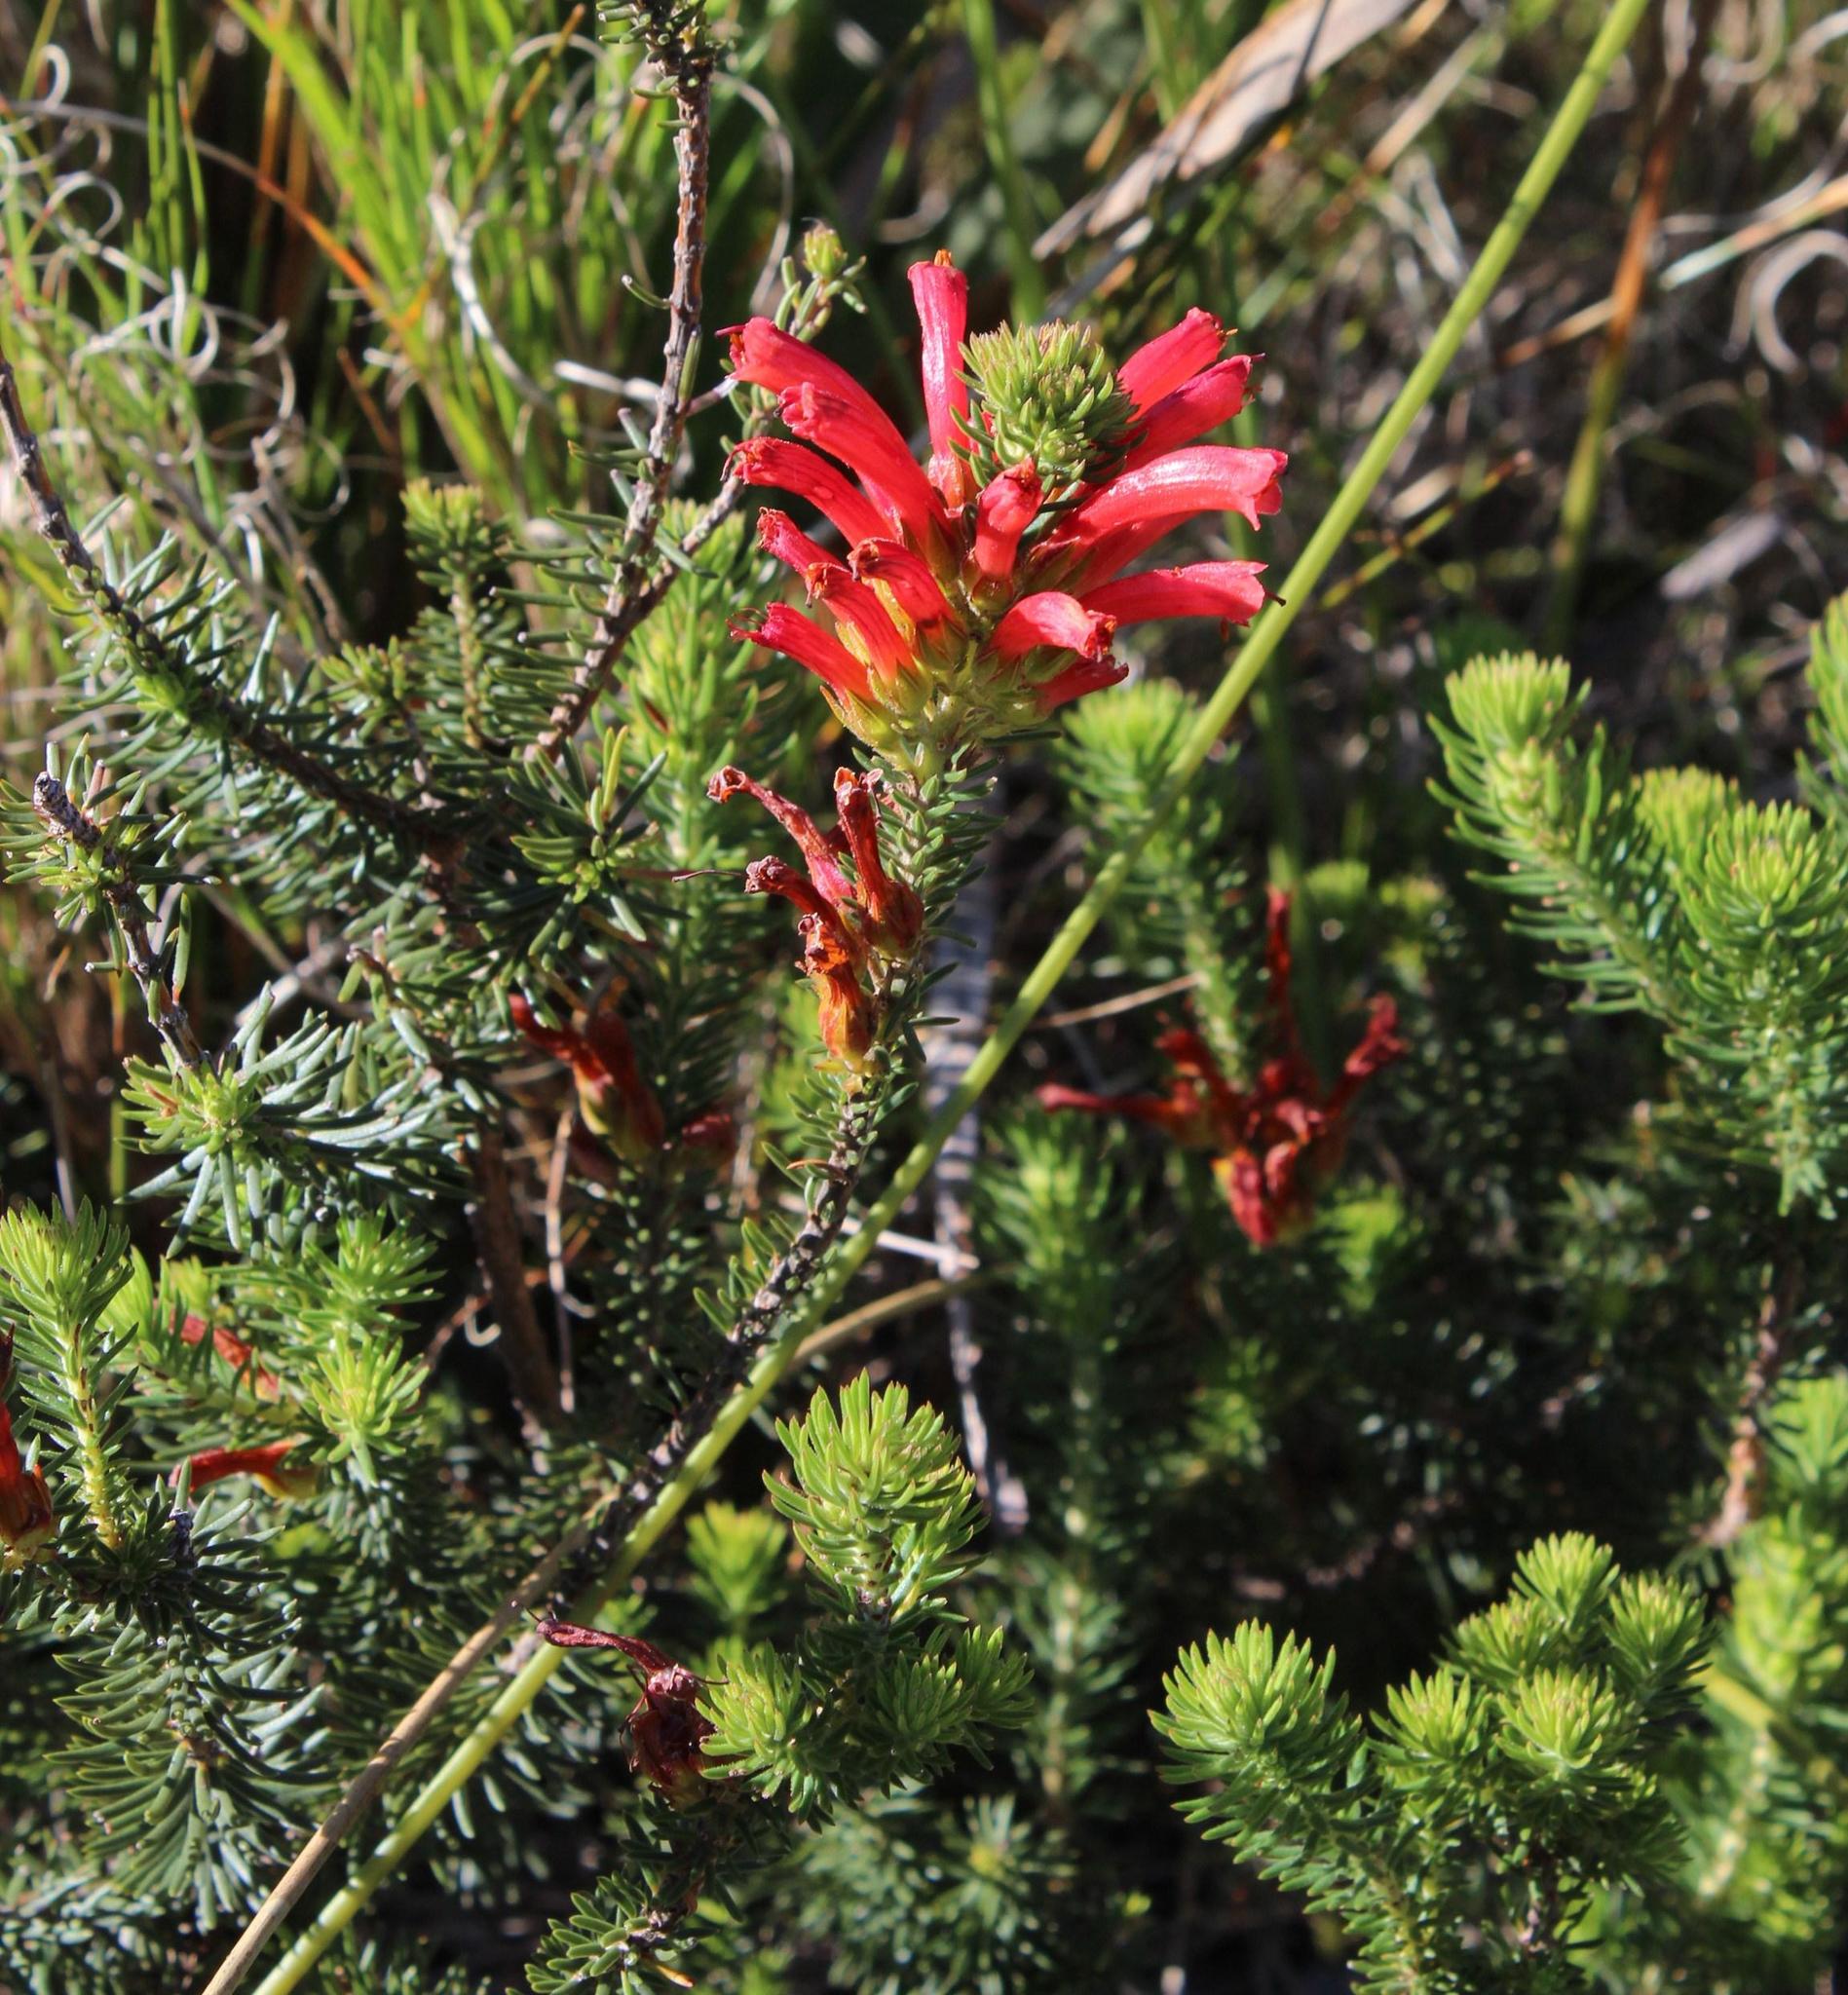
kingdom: Plantae
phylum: Tracheophyta
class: Magnoliopsida
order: Ericales
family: Ericaceae
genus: Erica
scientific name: Erica abietina
